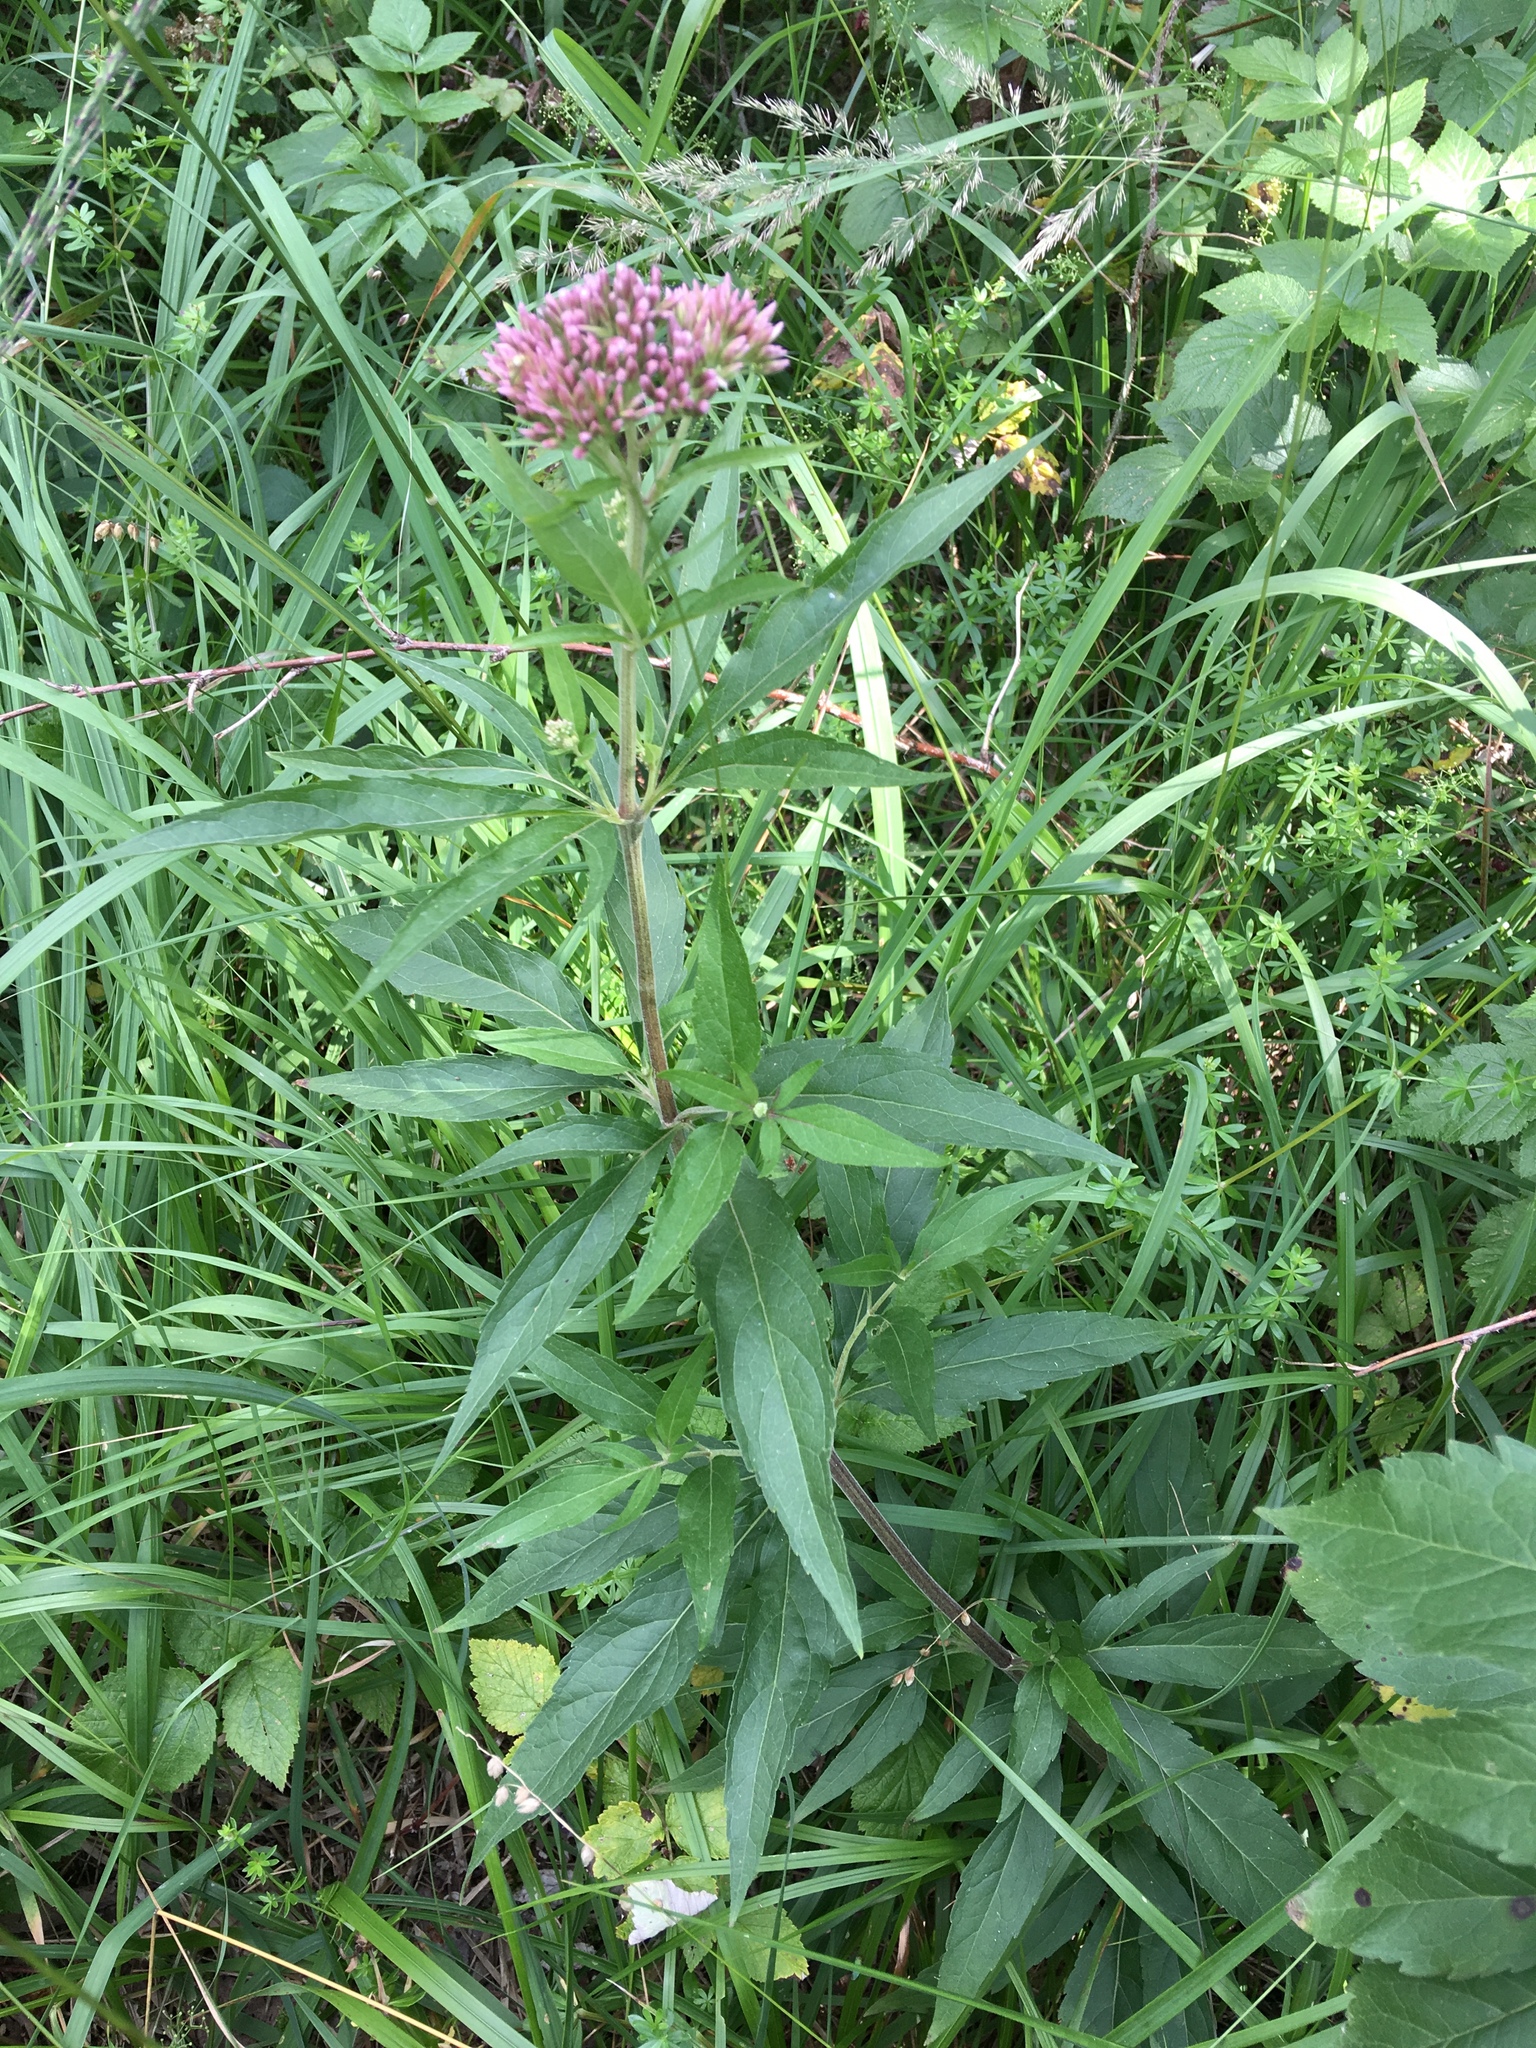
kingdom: Plantae
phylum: Tracheophyta
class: Magnoliopsida
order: Asterales
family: Asteraceae
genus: Eupatorium
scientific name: Eupatorium cannabinum
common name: Hemp-agrimony
